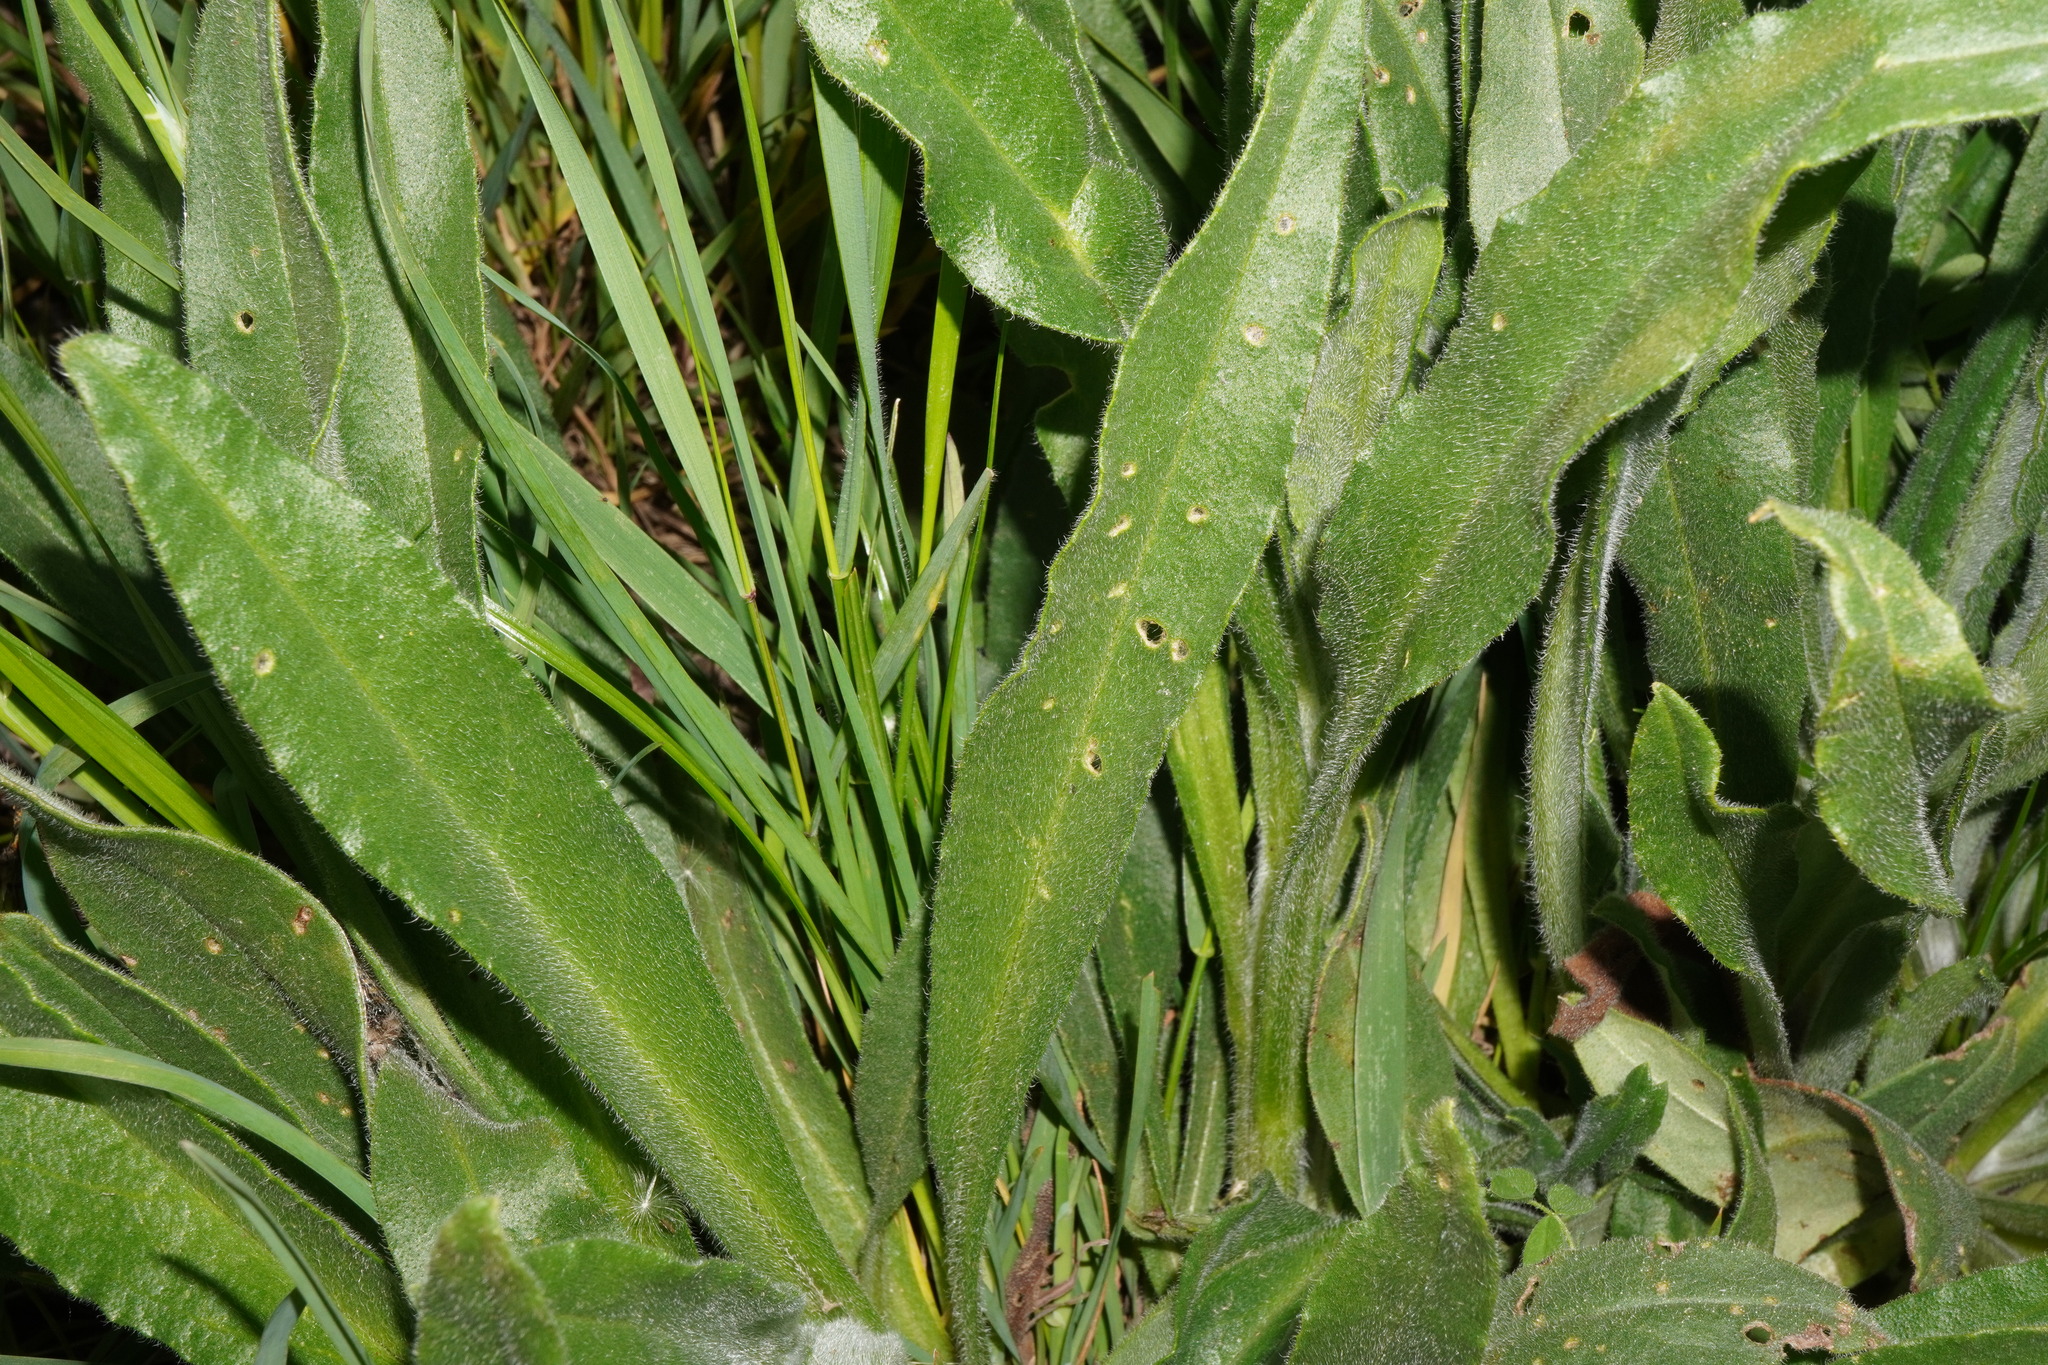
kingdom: Plantae
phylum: Tracheophyta
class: Magnoliopsida
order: Boraginales
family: Boraginaceae
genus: Anchusa
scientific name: Anchusa officinalis
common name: Alkanet
